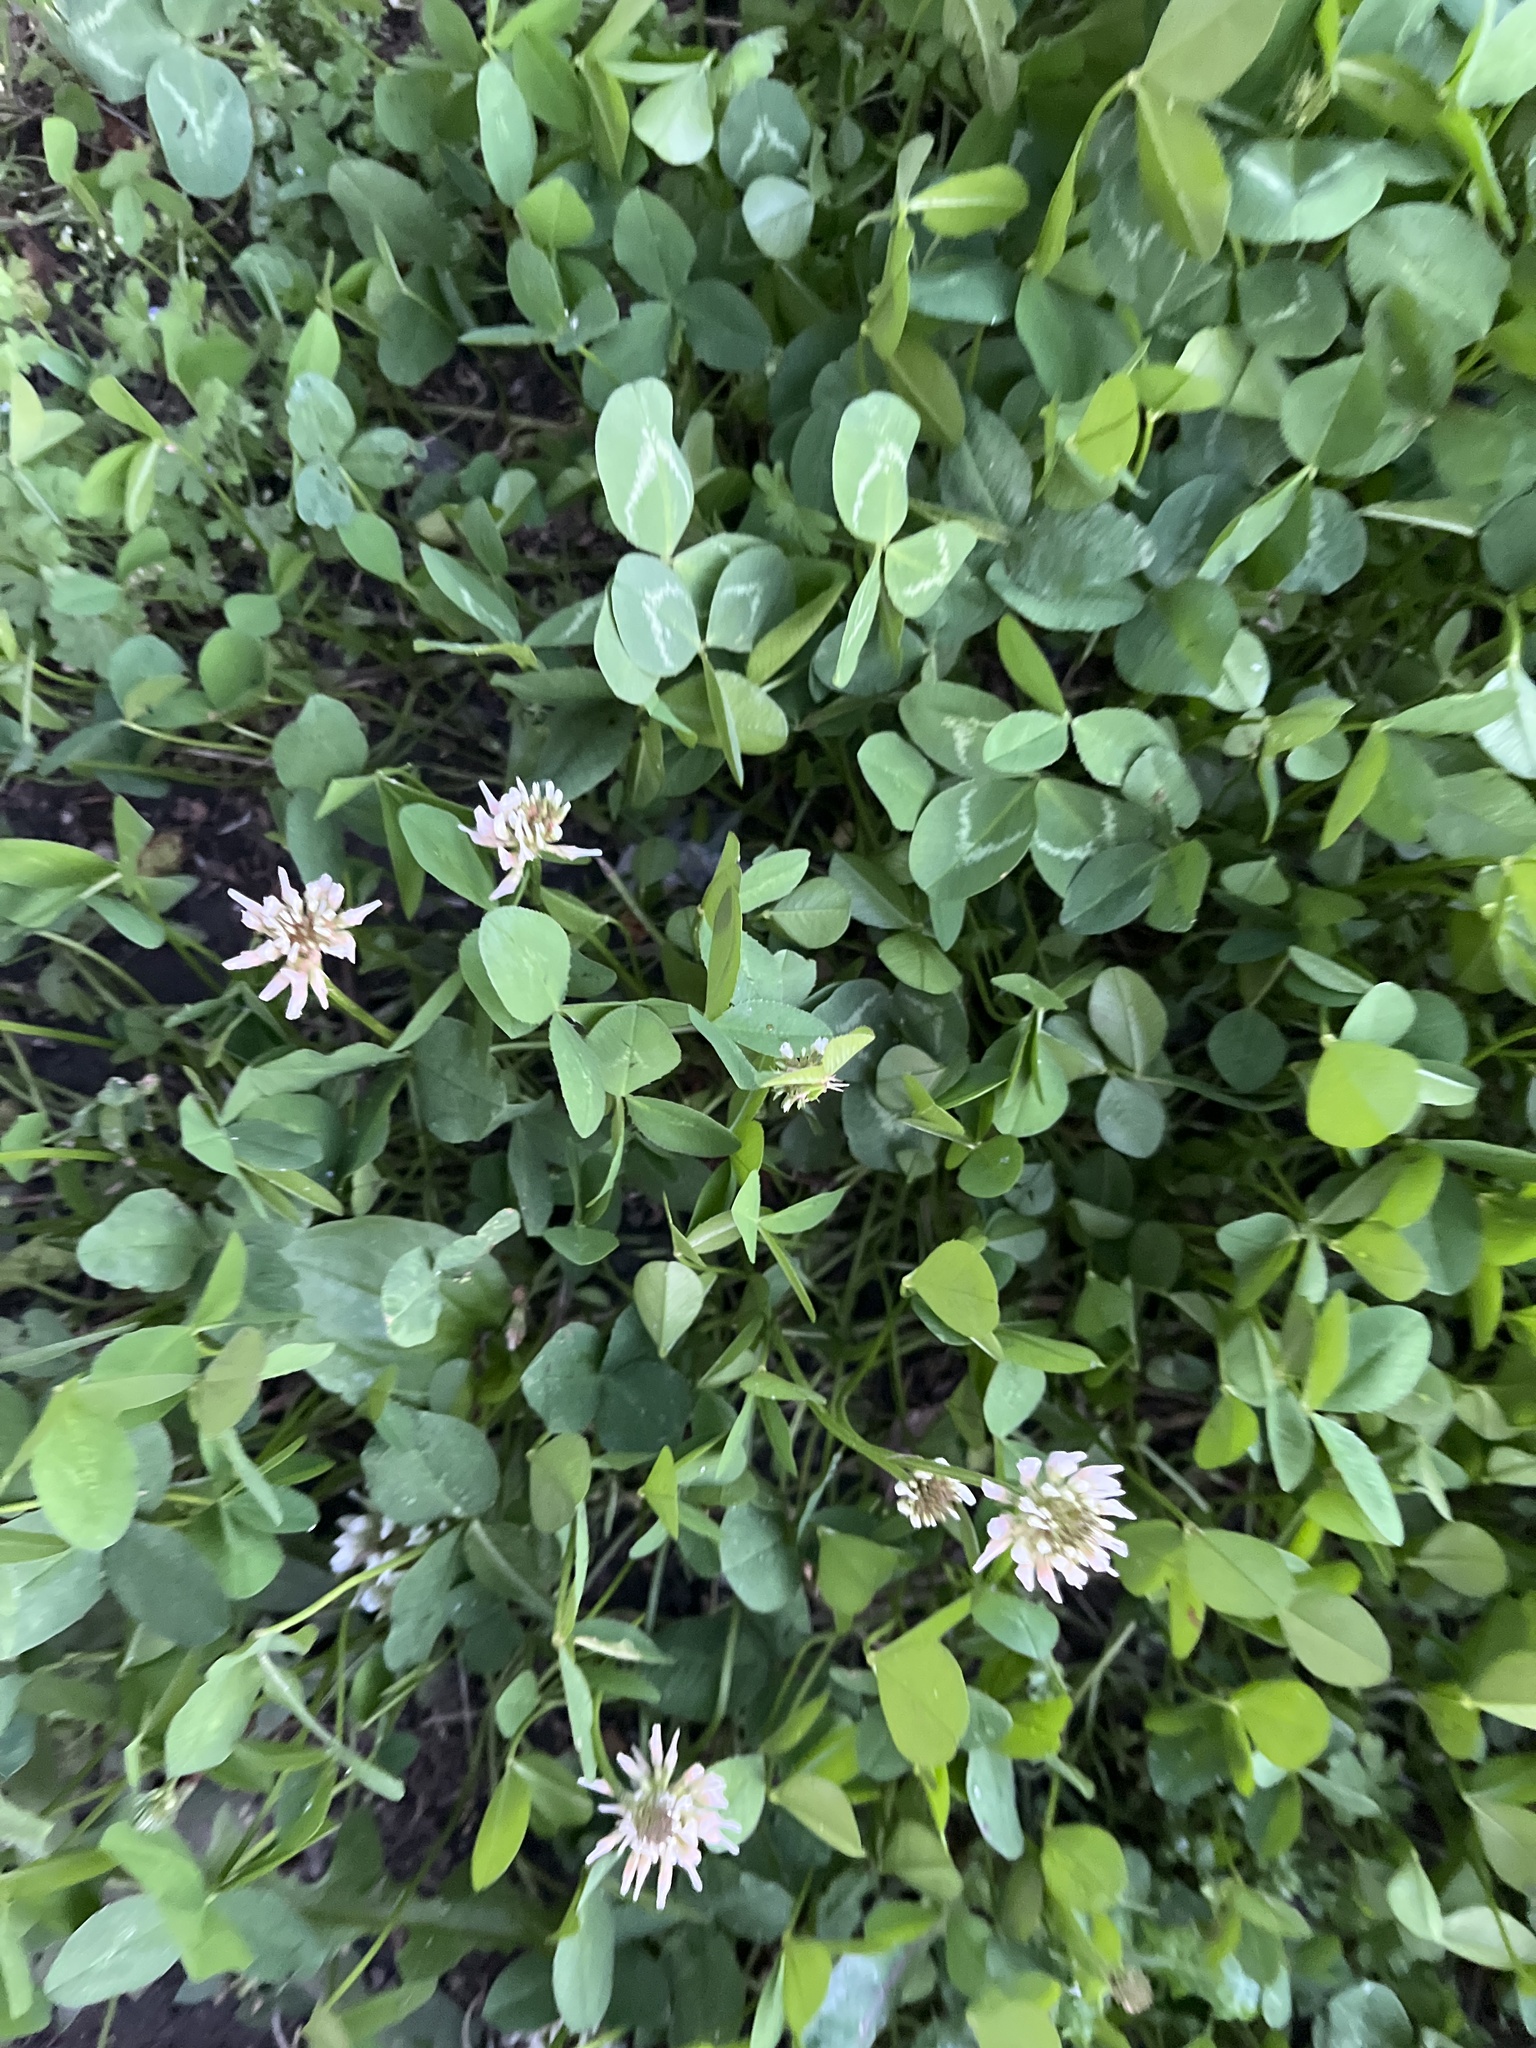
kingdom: Plantae
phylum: Tracheophyta
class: Magnoliopsida
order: Fabales
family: Fabaceae
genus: Trifolium
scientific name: Trifolium repens
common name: White clover
